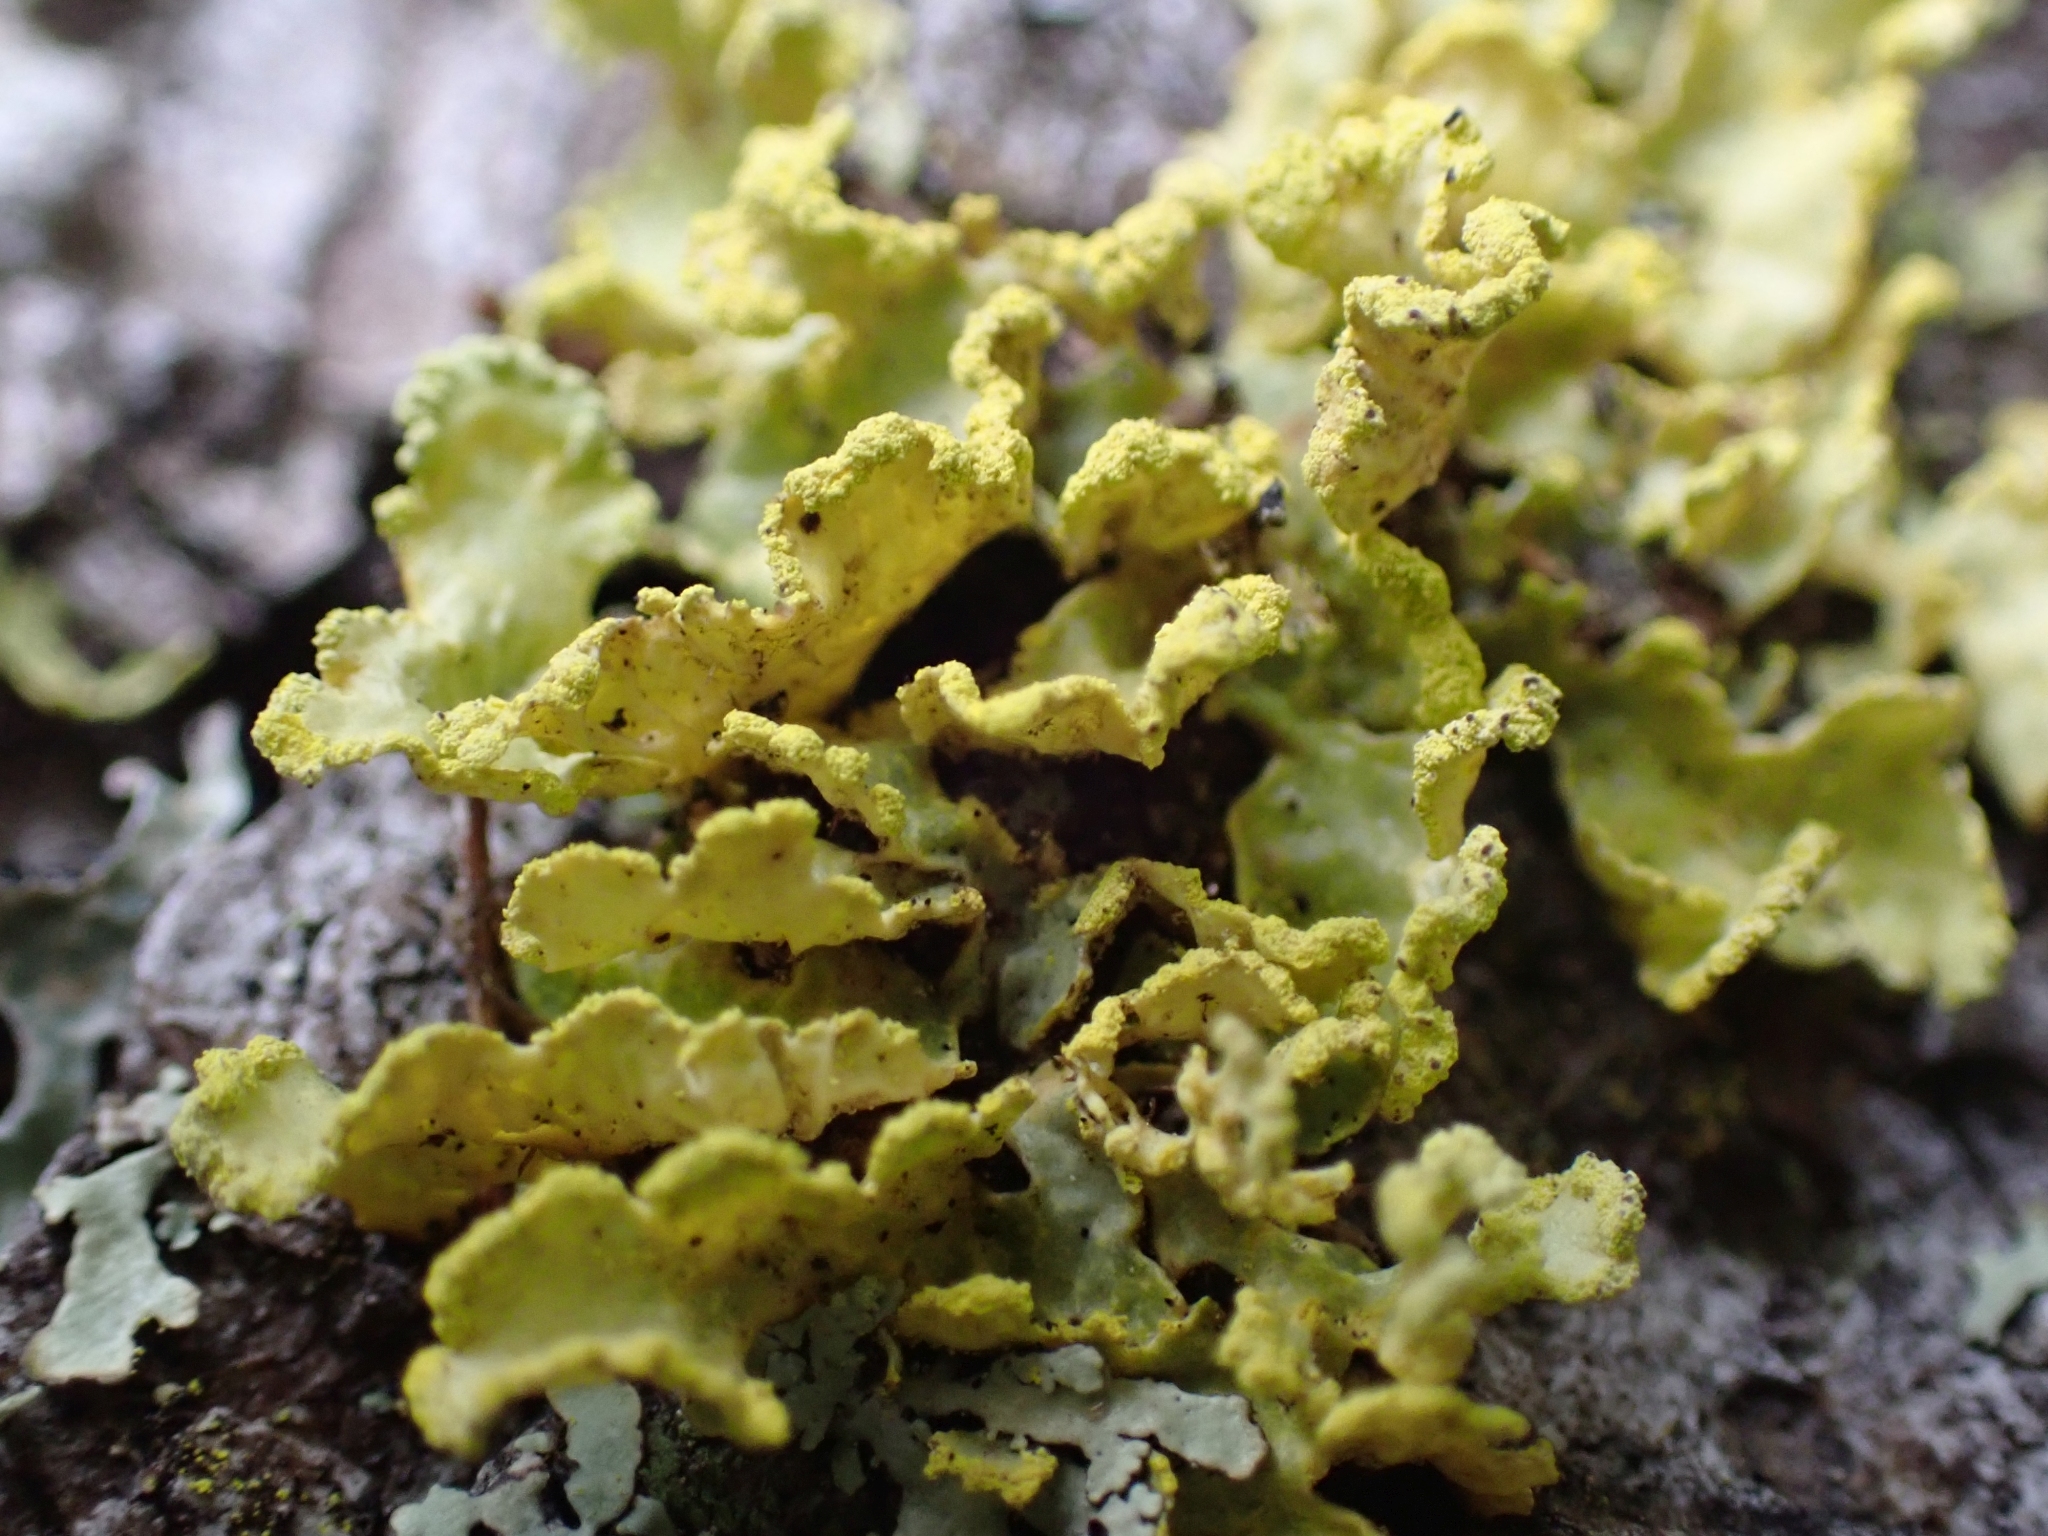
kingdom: Fungi
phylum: Ascomycota
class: Lecanoromycetes
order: Lecanorales
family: Parmeliaceae
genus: Vulpicida
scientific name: Vulpicida pinastri
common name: Powdered sunshine lichen
